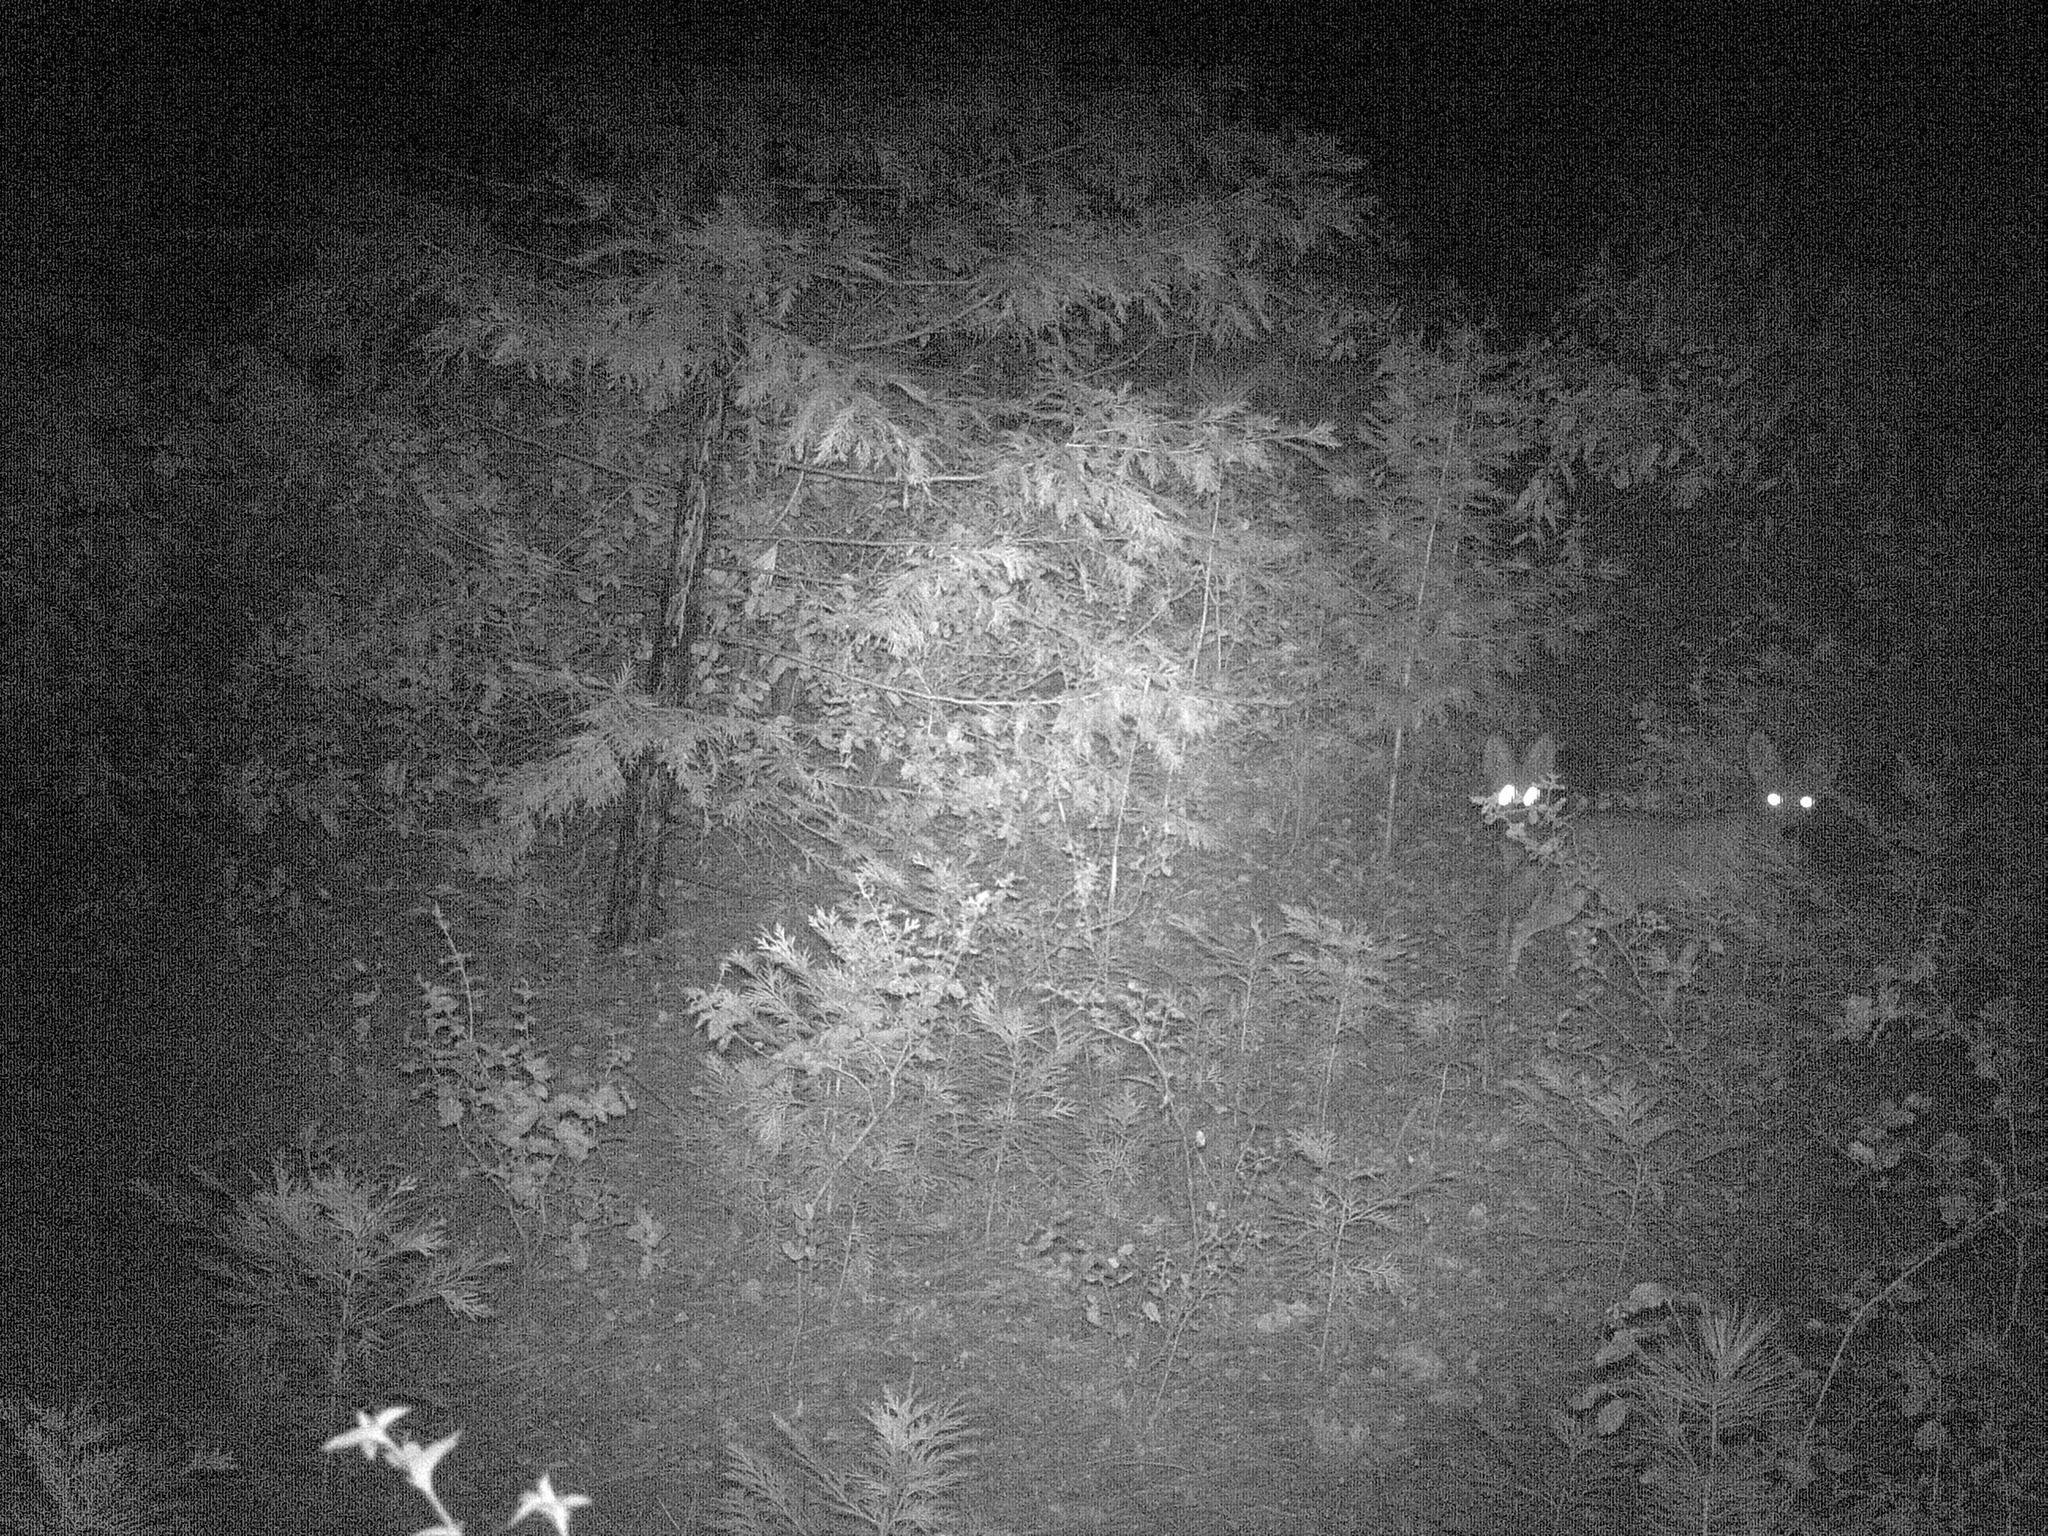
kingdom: Animalia
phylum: Chordata
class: Mammalia
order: Carnivora
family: Canidae
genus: Canis
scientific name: Canis latrans
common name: Coyote
